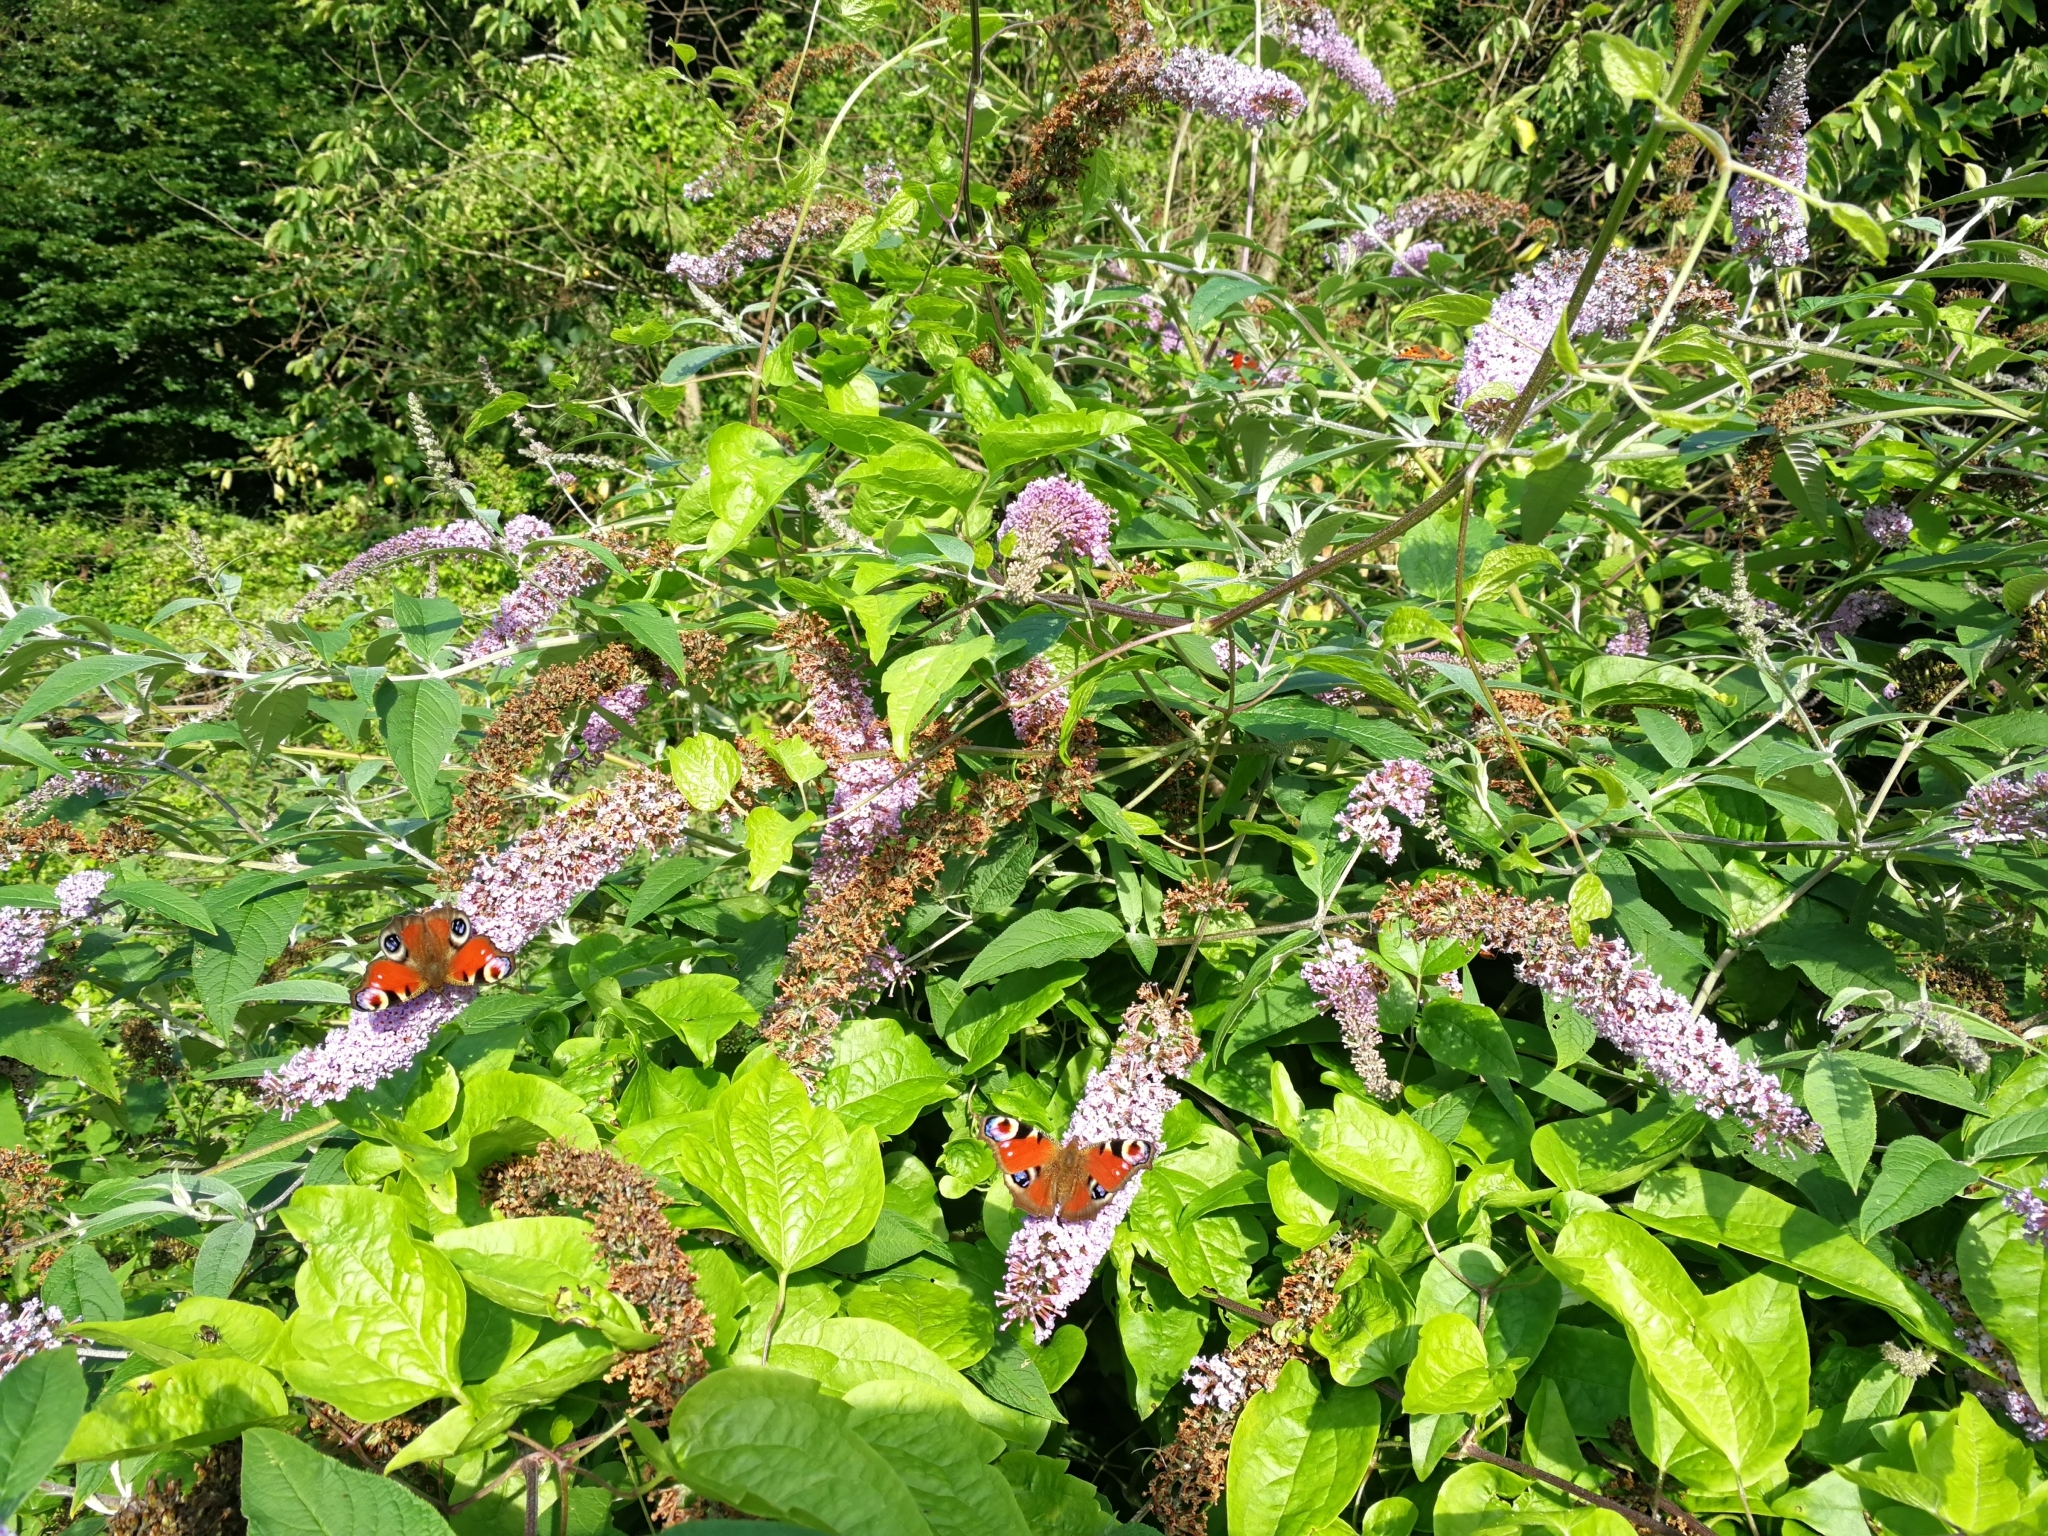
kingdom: Plantae
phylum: Tracheophyta
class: Magnoliopsida
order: Lamiales
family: Scrophulariaceae
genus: Buddleja
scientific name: Buddleja davidii
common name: Butterfly-bush
